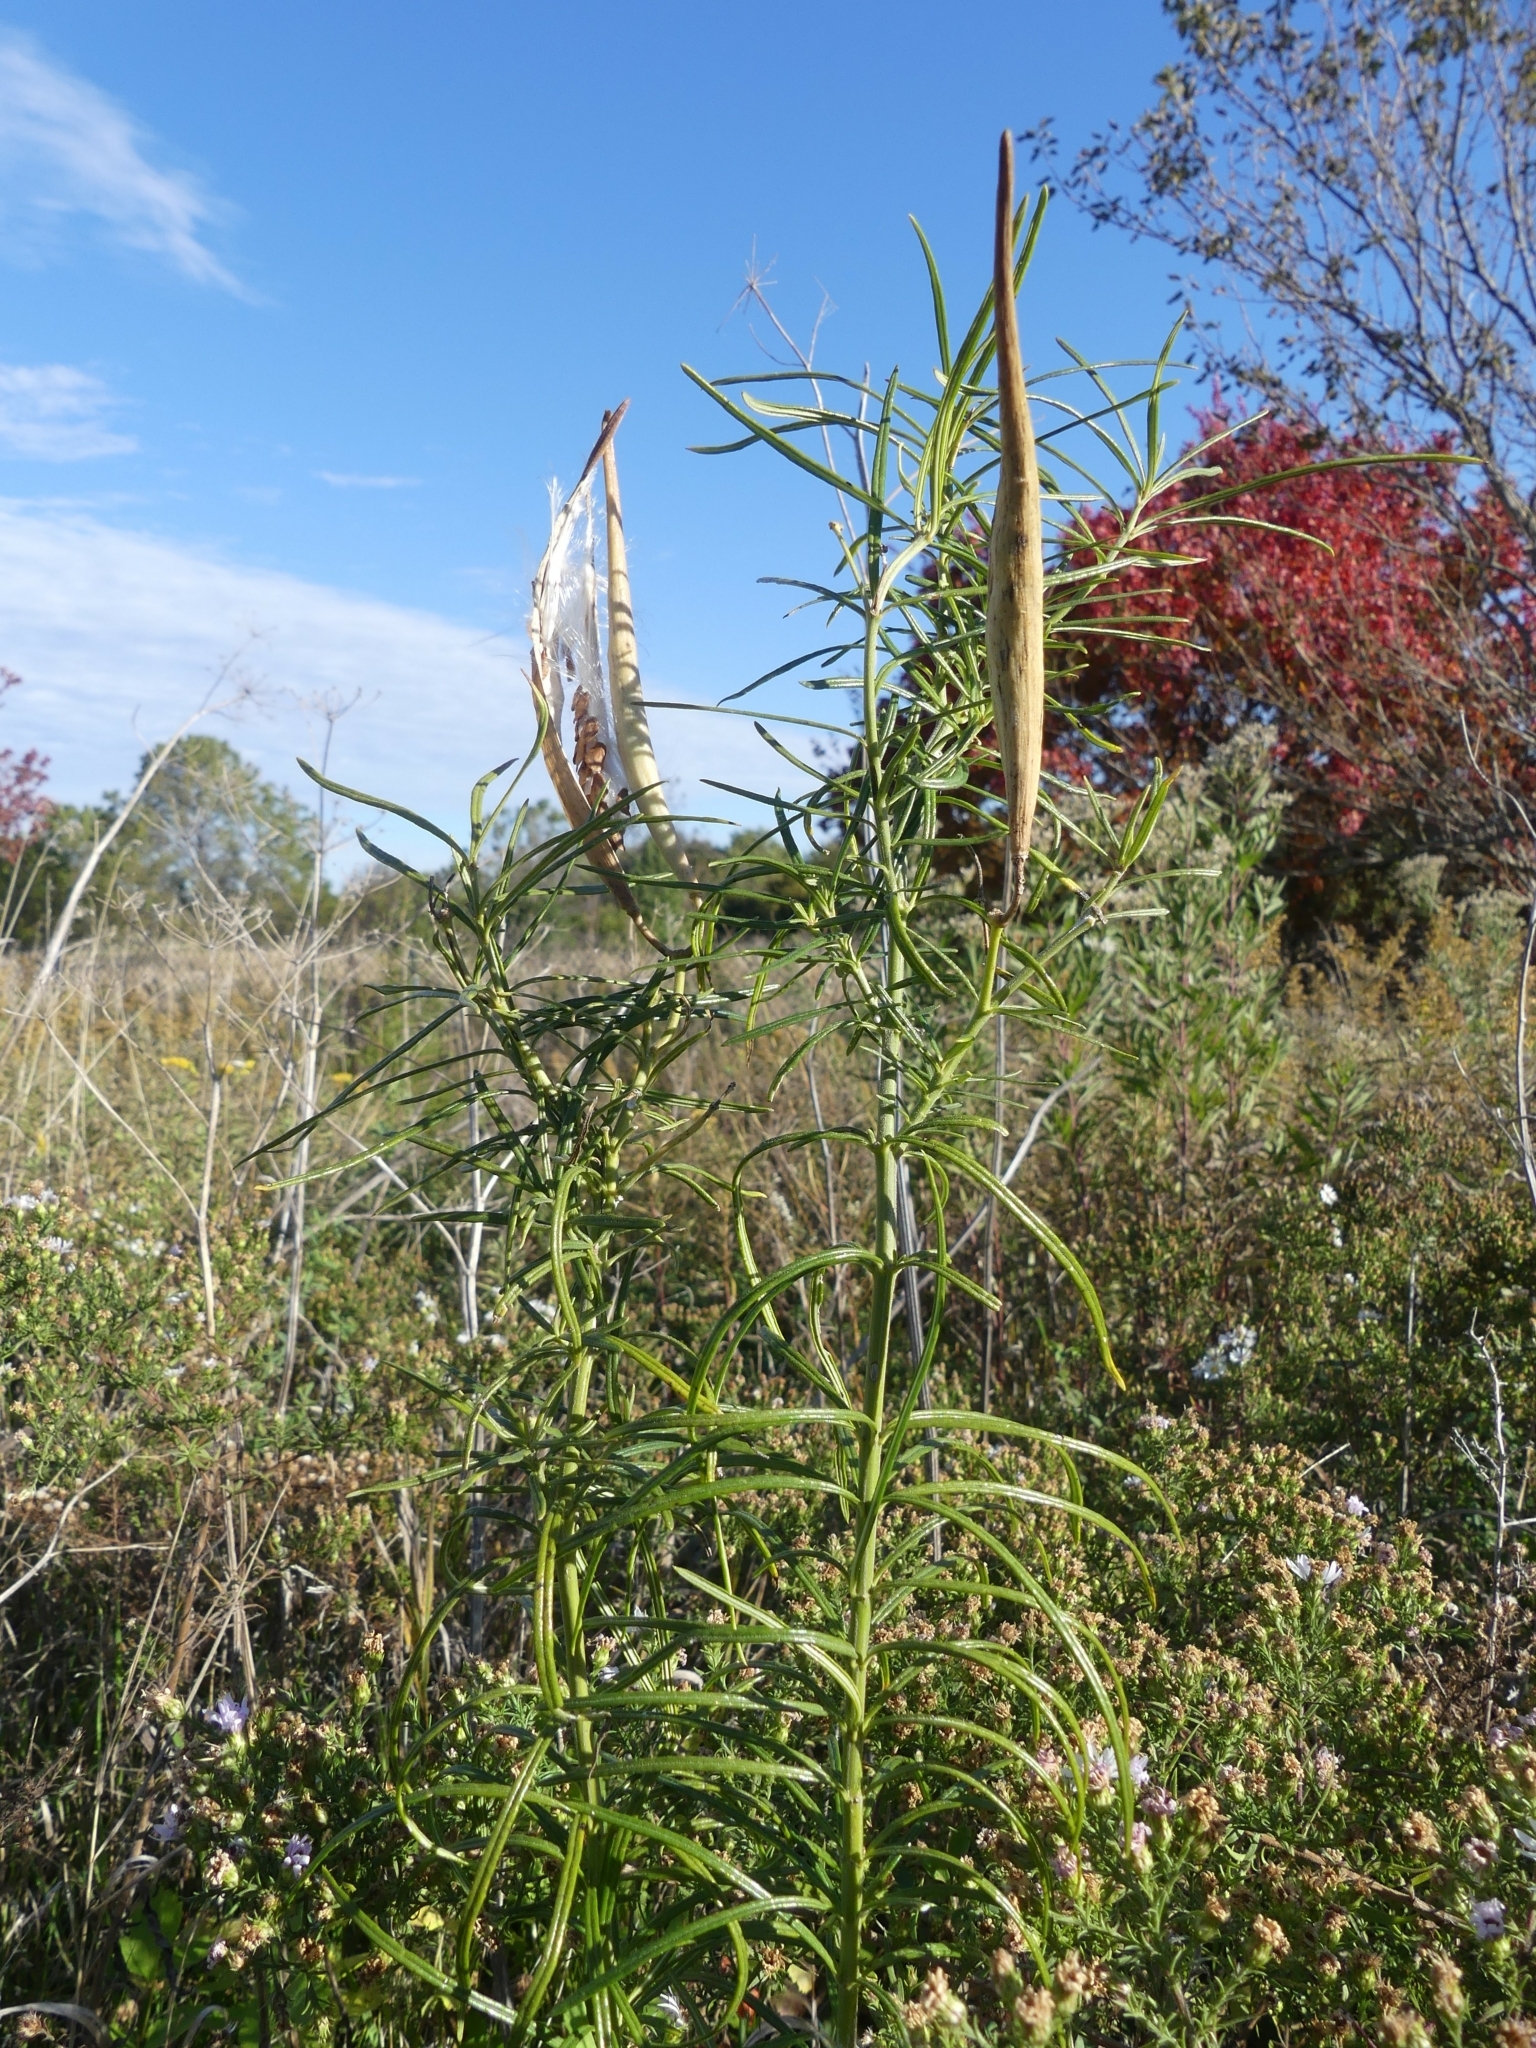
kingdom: Plantae
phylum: Tracheophyta
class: Magnoliopsida
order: Gentianales
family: Apocynaceae
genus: Asclepias
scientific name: Asclepias verticillata
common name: Eastern whorled milkweed
